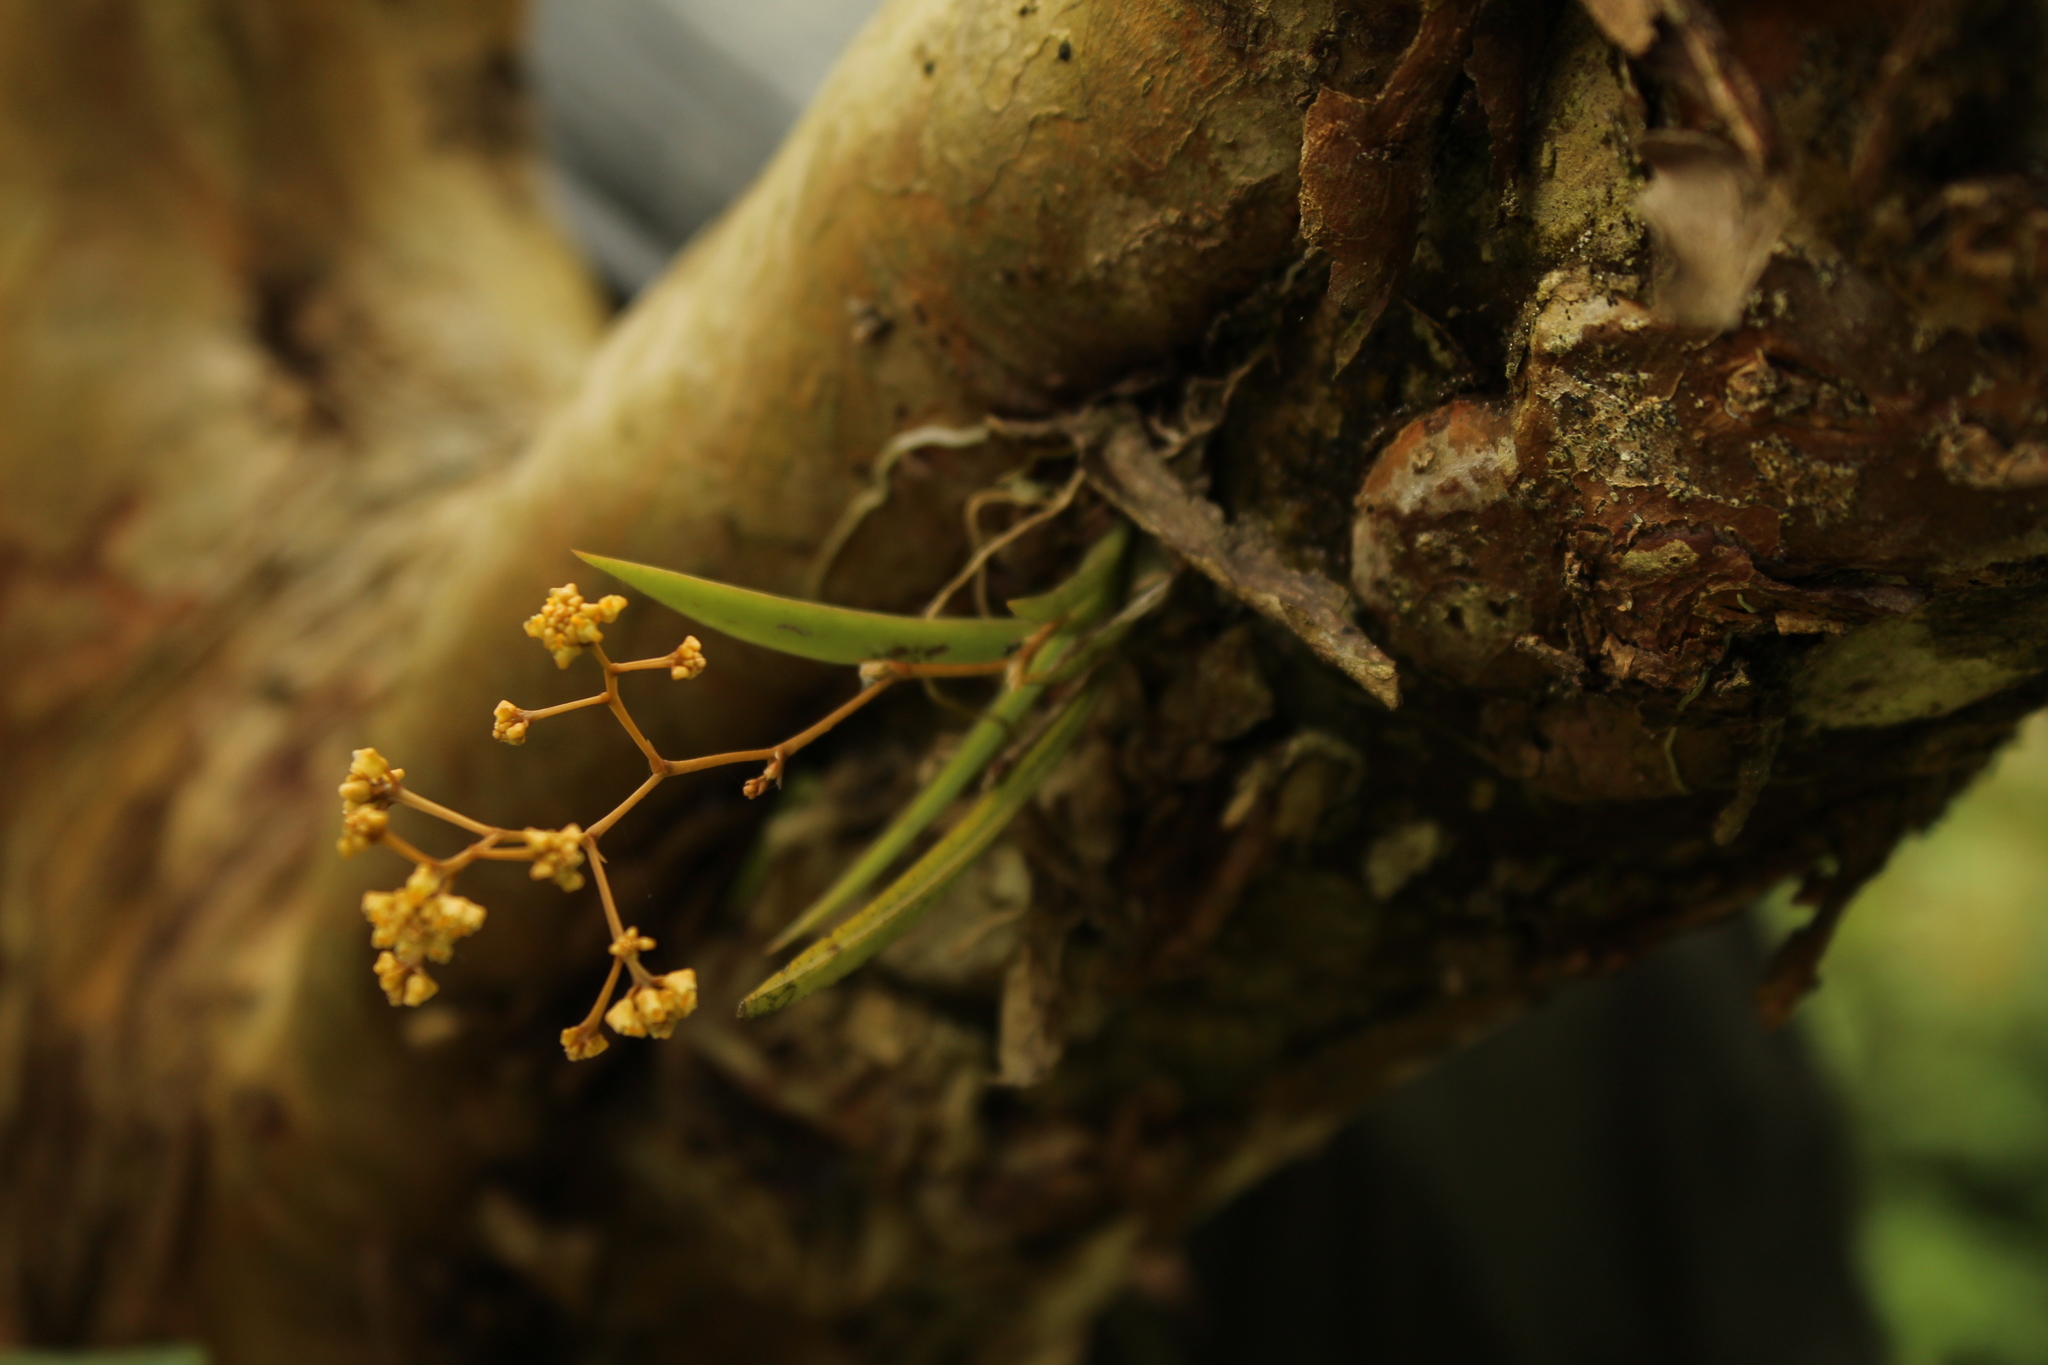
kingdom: Plantae
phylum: Tracheophyta
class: Liliopsida
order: Asparagales
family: Orchidaceae
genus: Trizeuxis
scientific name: Trizeuxis falcata
